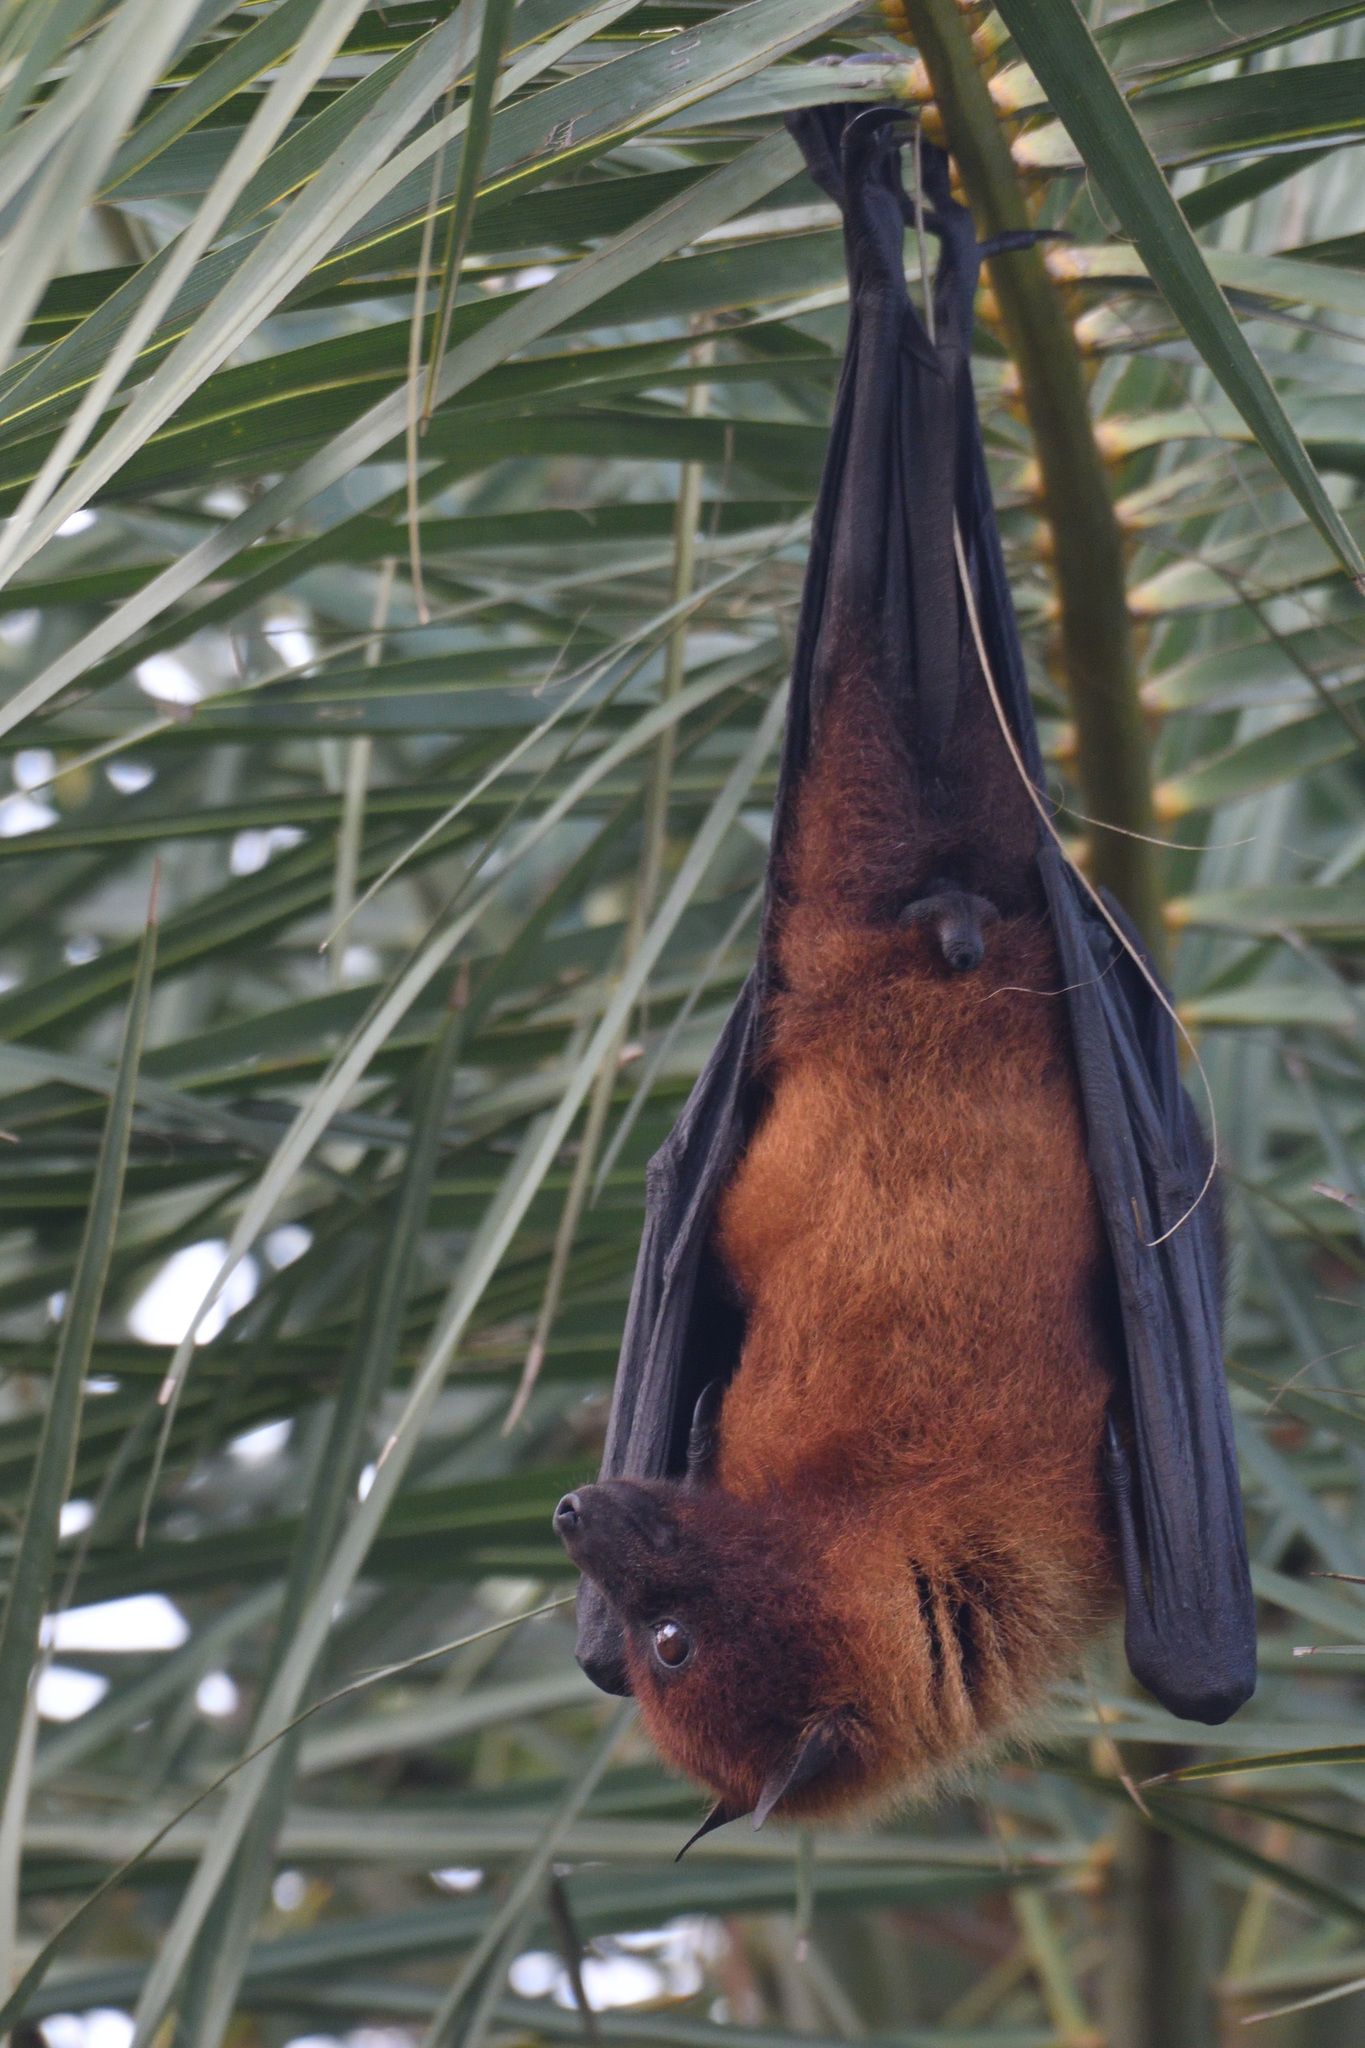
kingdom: Animalia
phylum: Chordata
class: Mammalia
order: Chiroptera
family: Pteropodidae
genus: Pteropus
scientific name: Pteropus vampyrus
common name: Large flying fox
